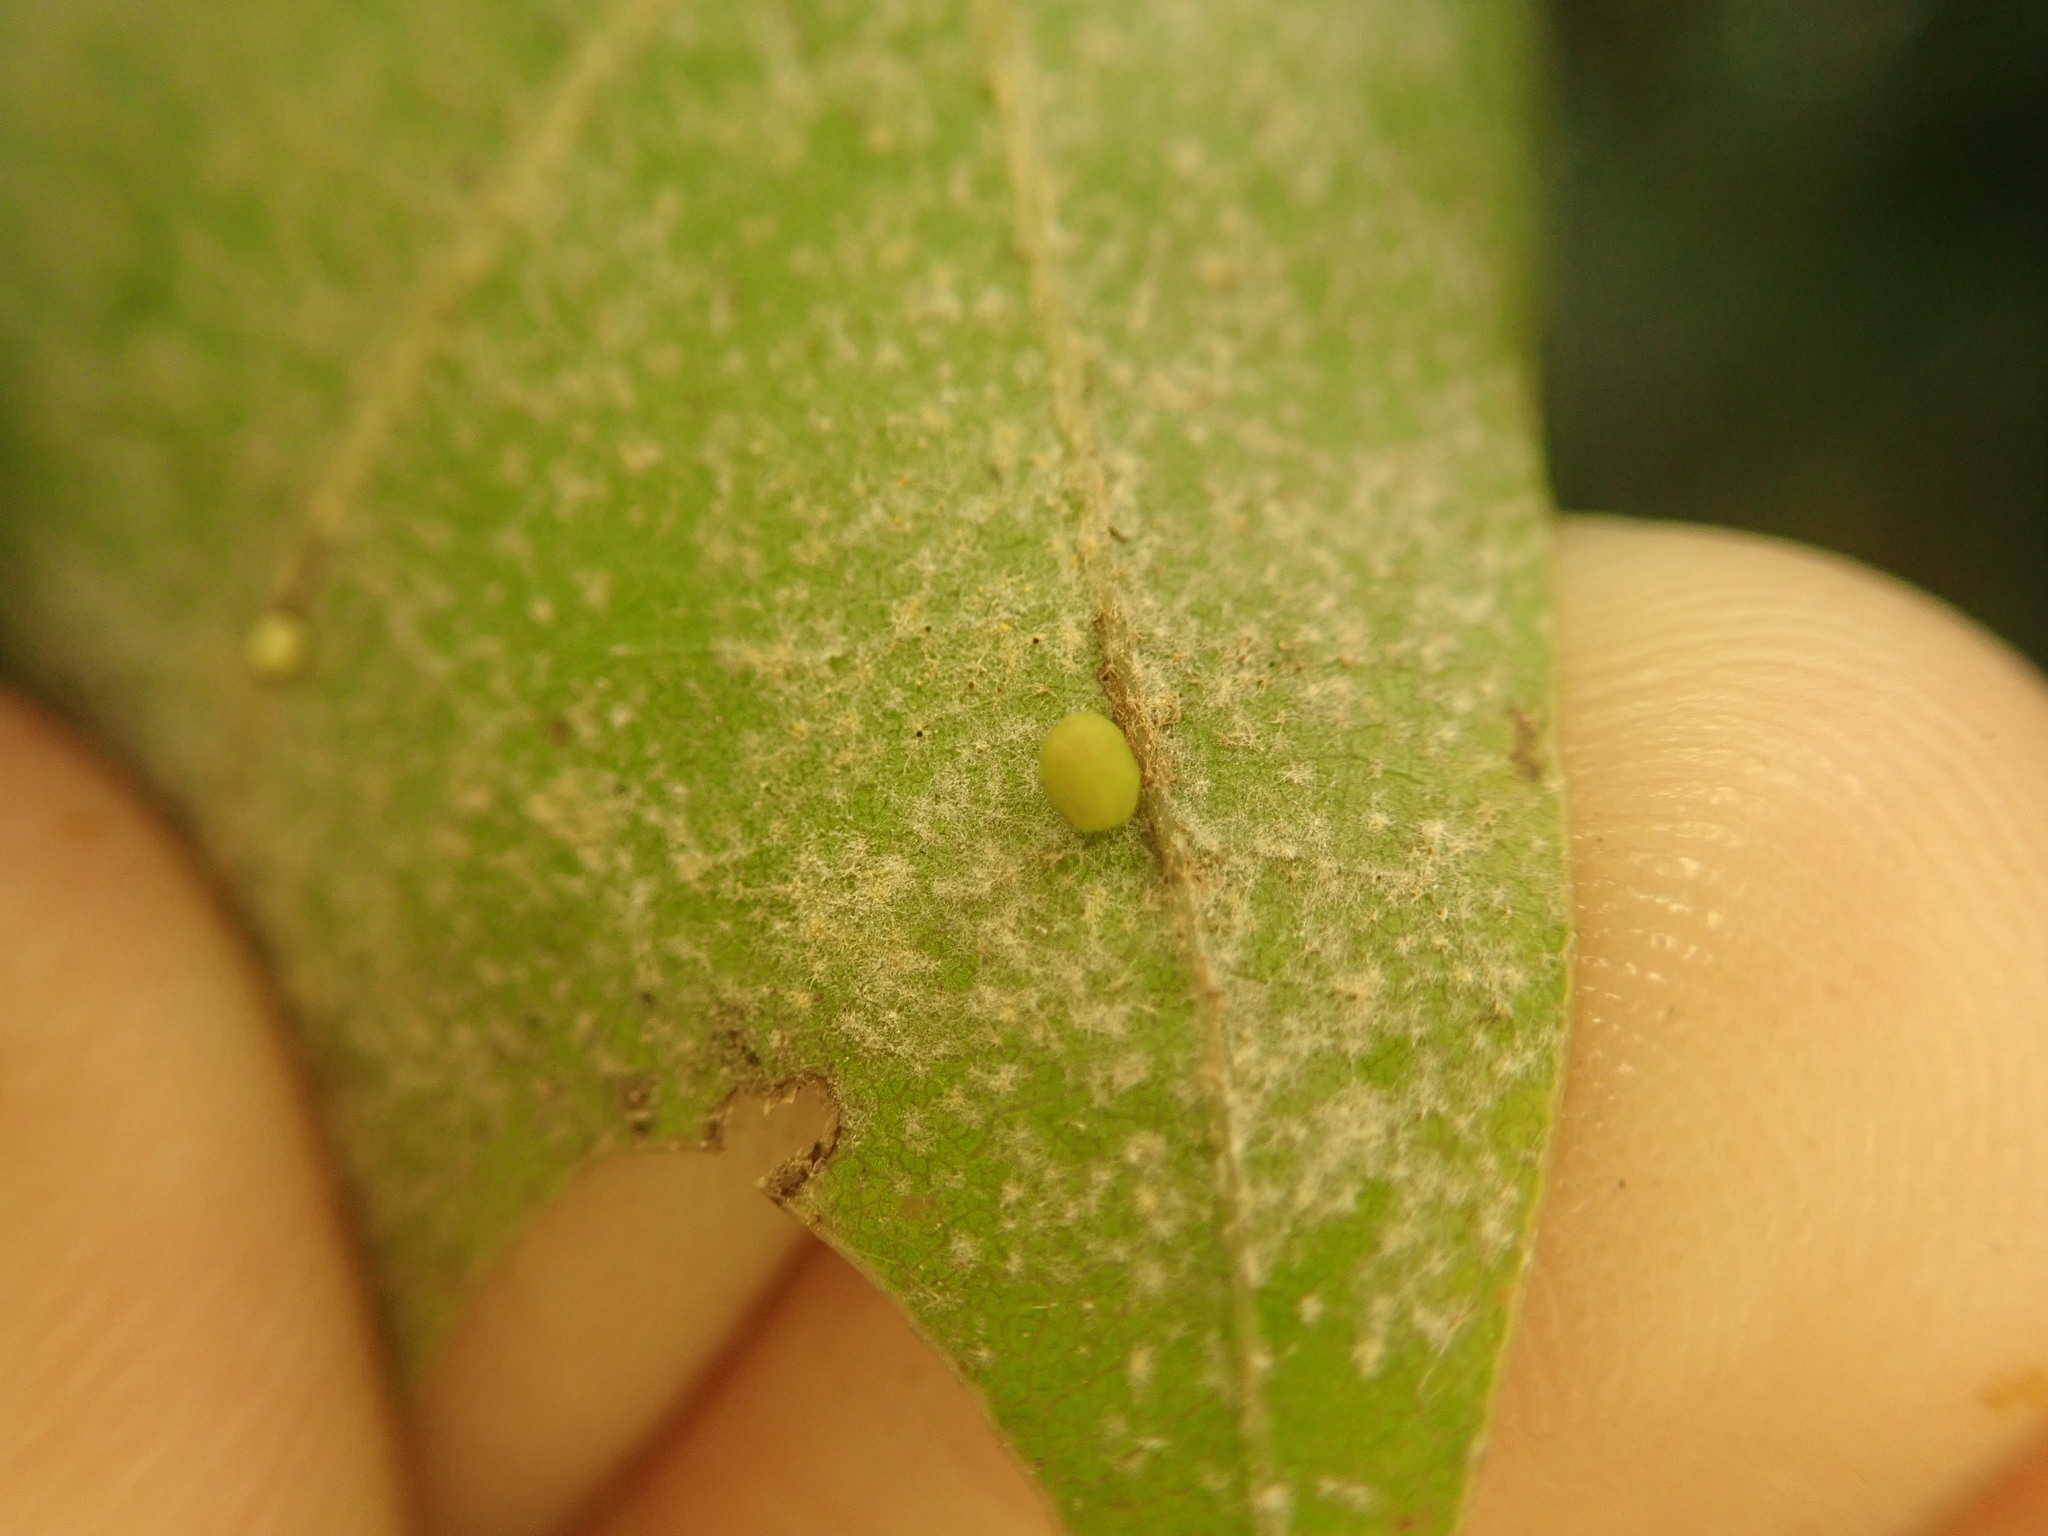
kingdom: Animalia
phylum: Arthropoda
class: Insecta
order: Hymenoptera
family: Cynipidae
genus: Zopheroteras
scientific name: Zopheroteras
